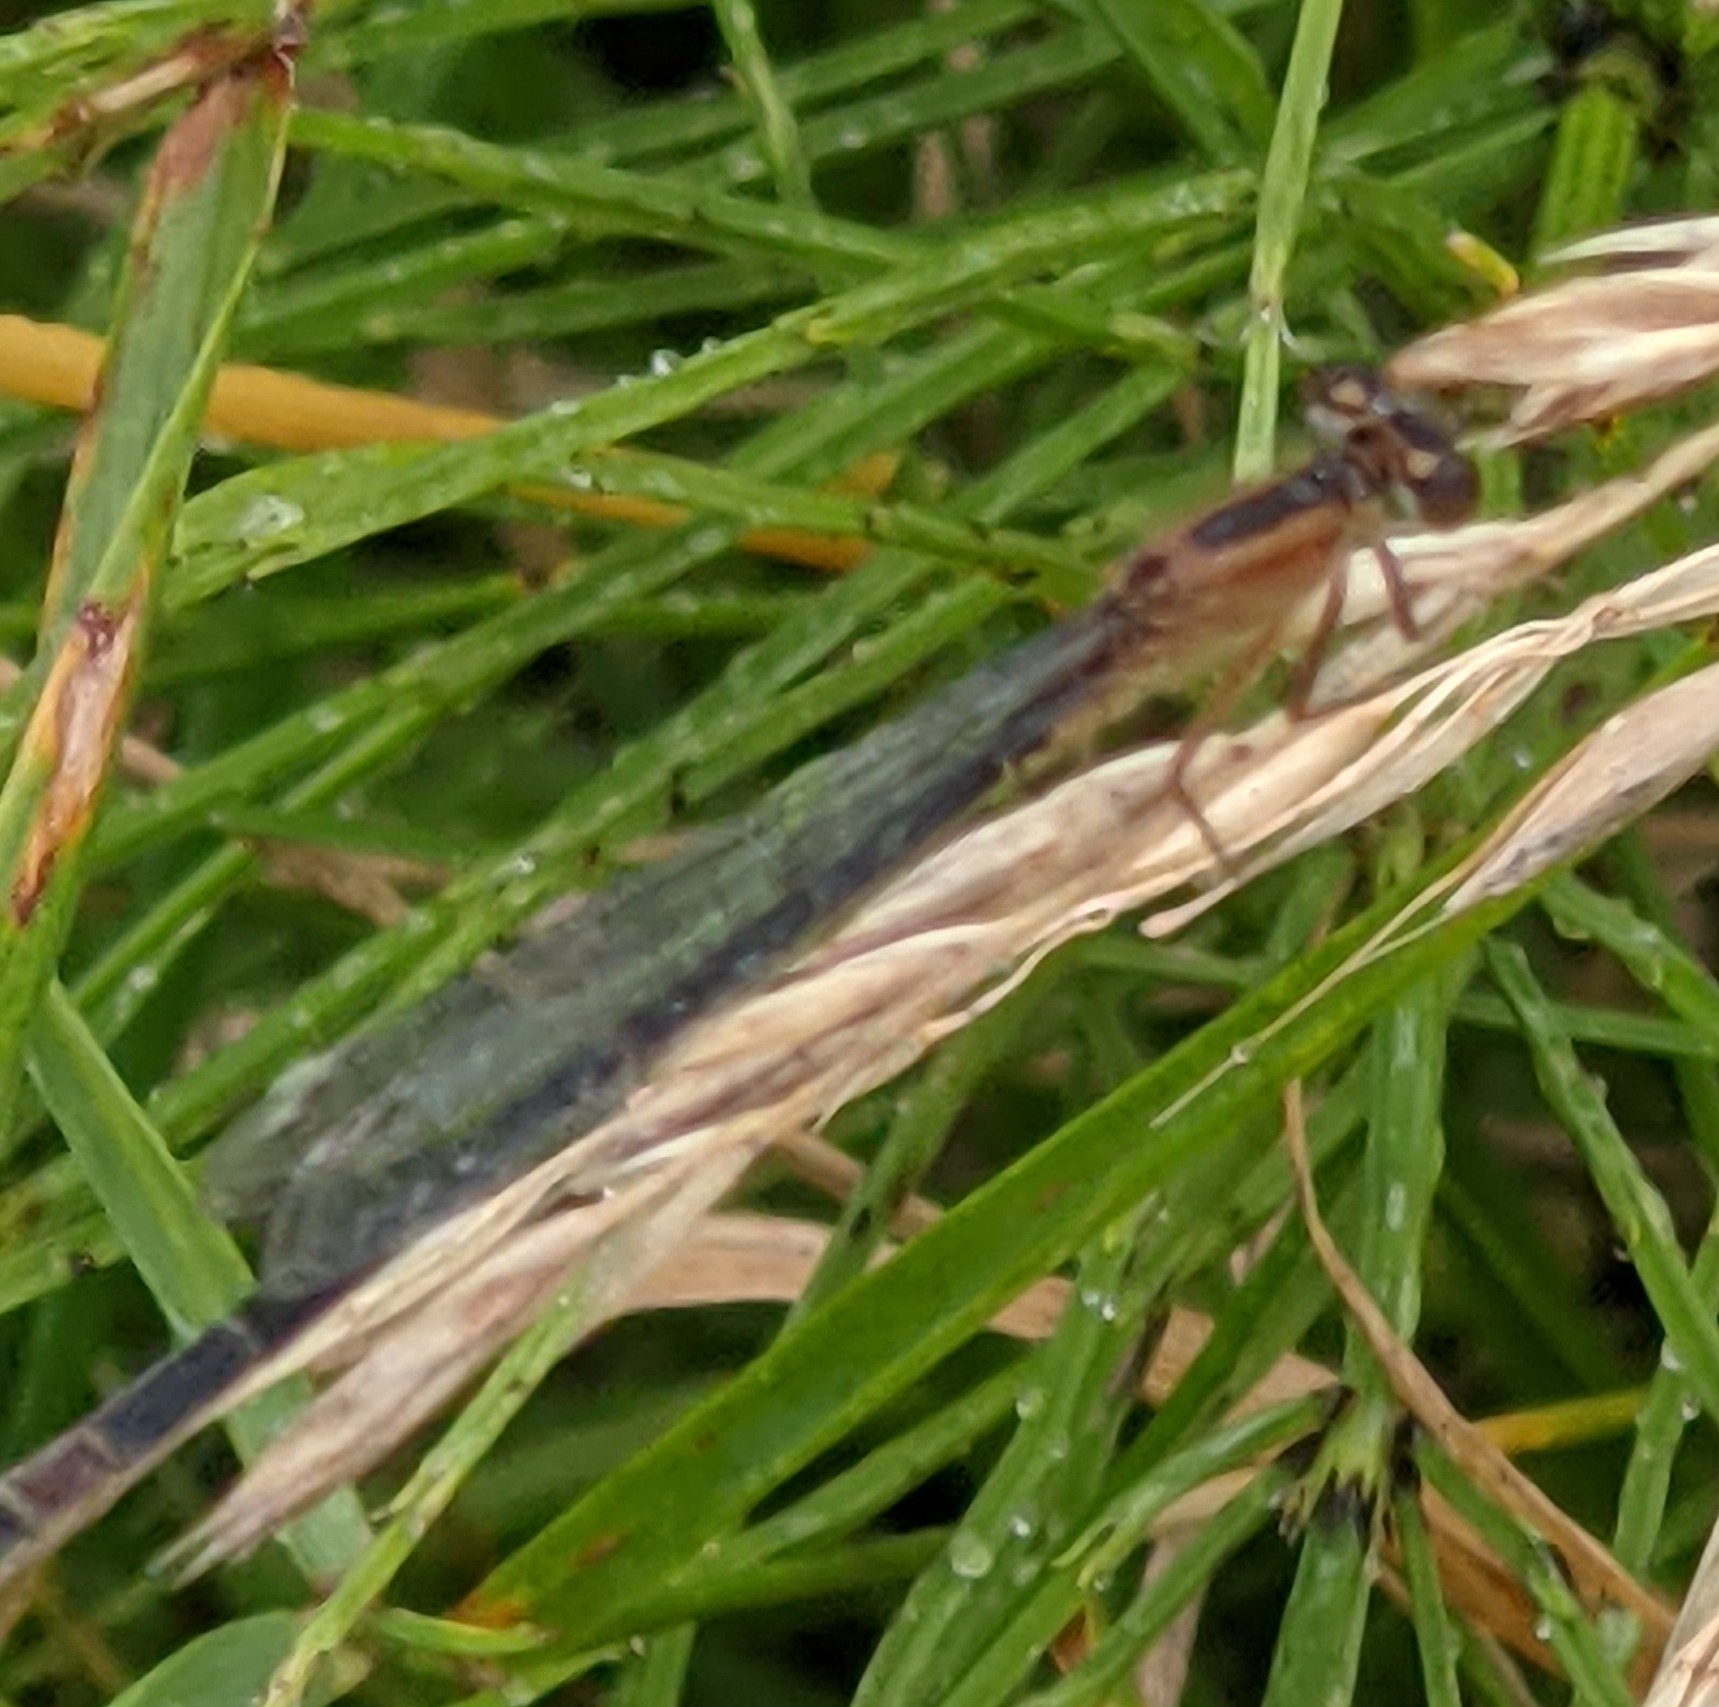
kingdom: Animalia
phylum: Arthropoda
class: Insecta
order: Odonata
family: Coenagrionidae
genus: Ischnura
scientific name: Ischnura elegans
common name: Blue-tailed damselfly
